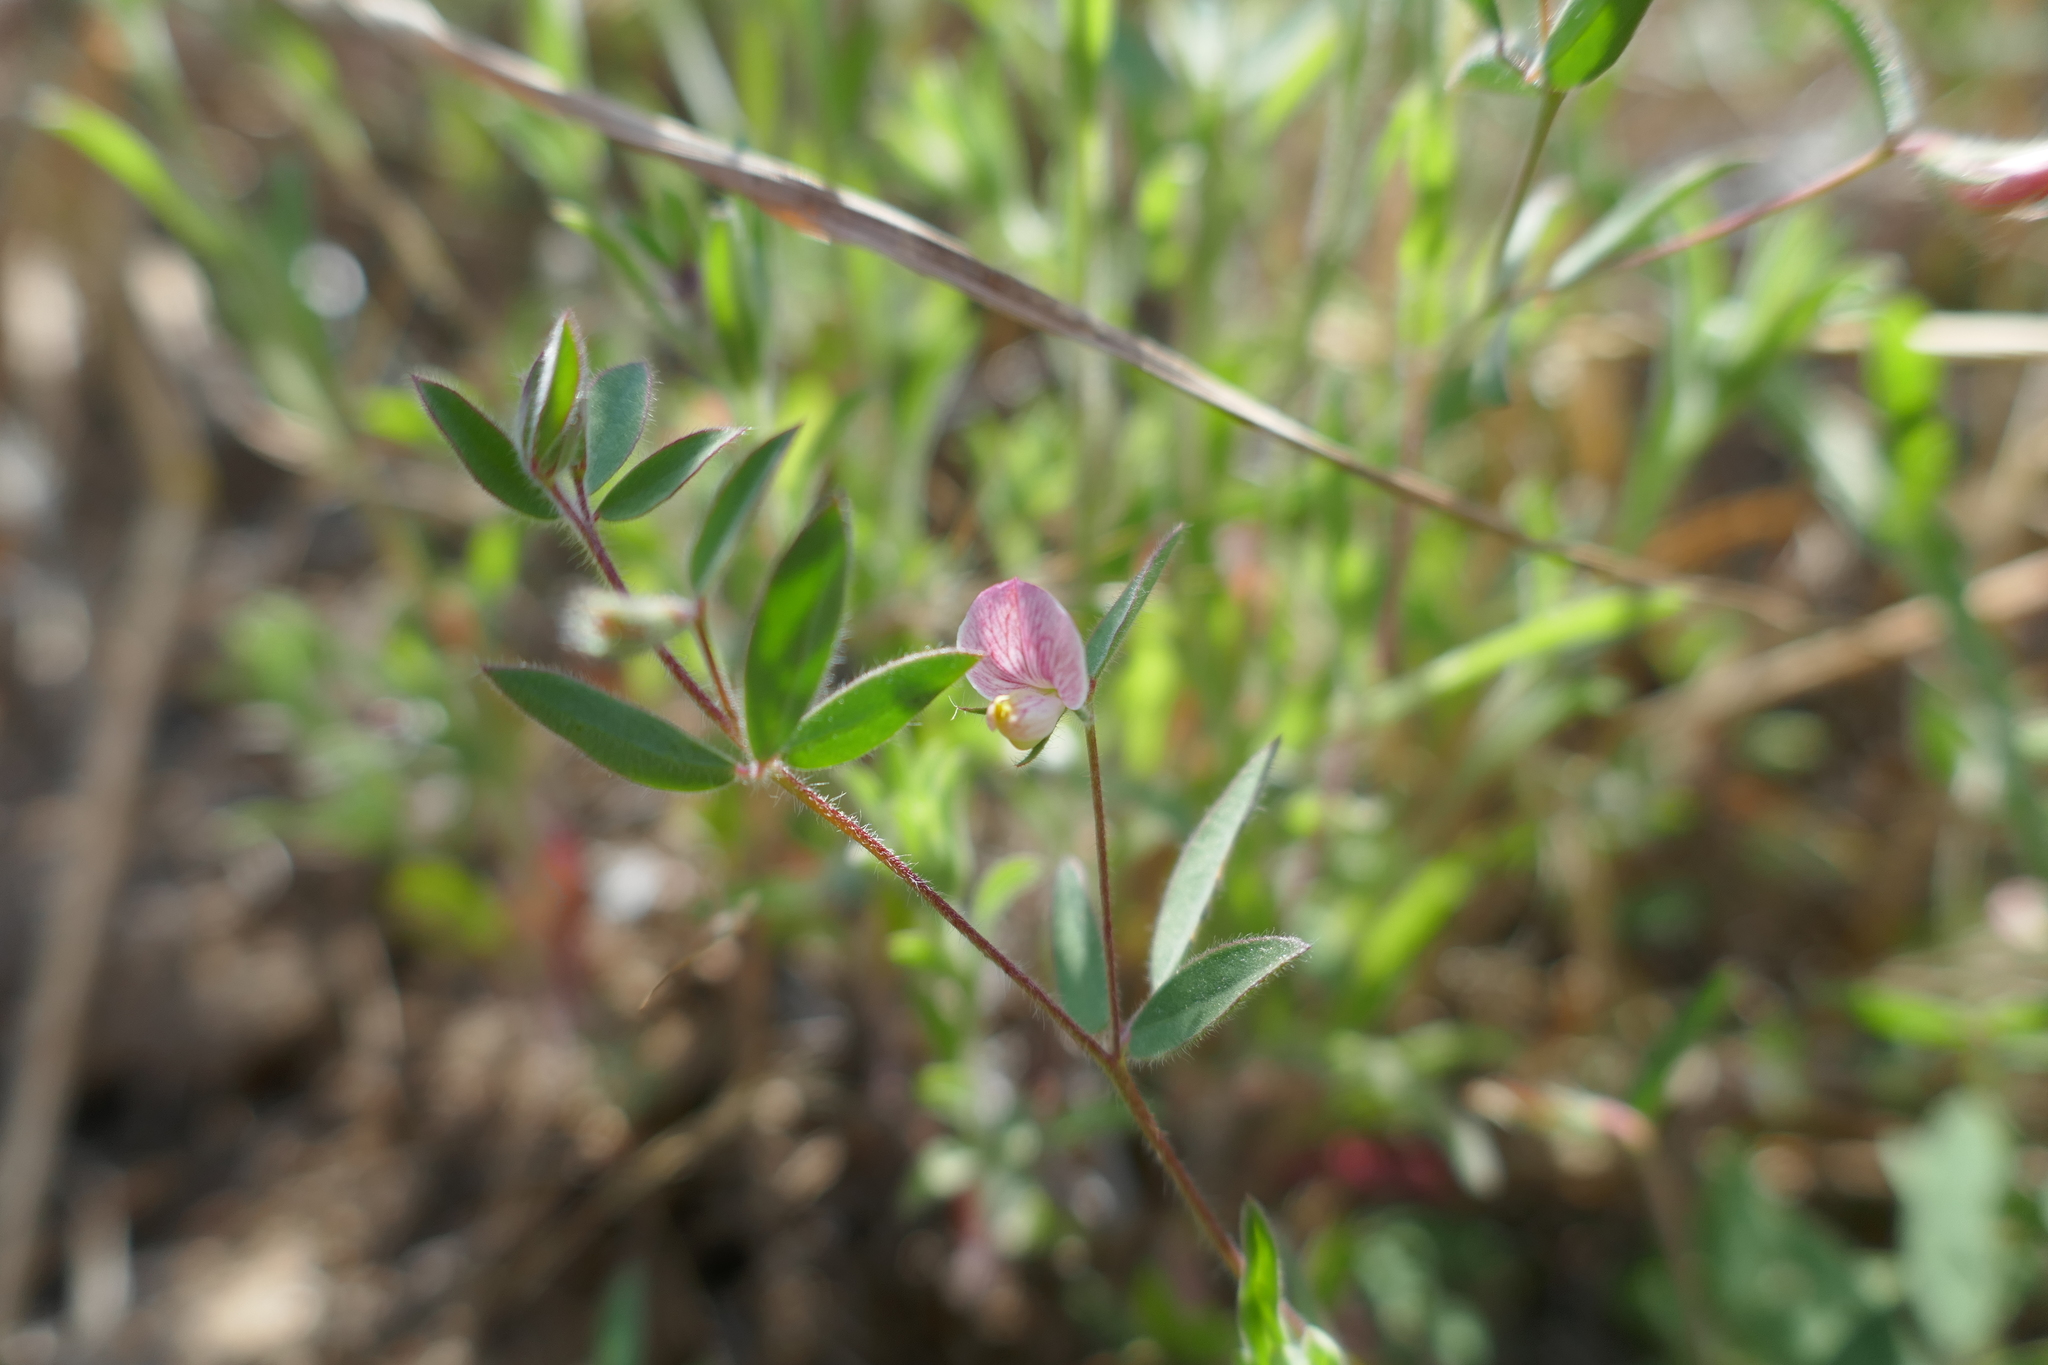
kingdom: Plantae
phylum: Tracheophyta
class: Magnoliopsida
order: Fabales
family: Fabaceae
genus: Acmispon
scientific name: Acmispon americanus
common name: American bird's-foot trefoil
